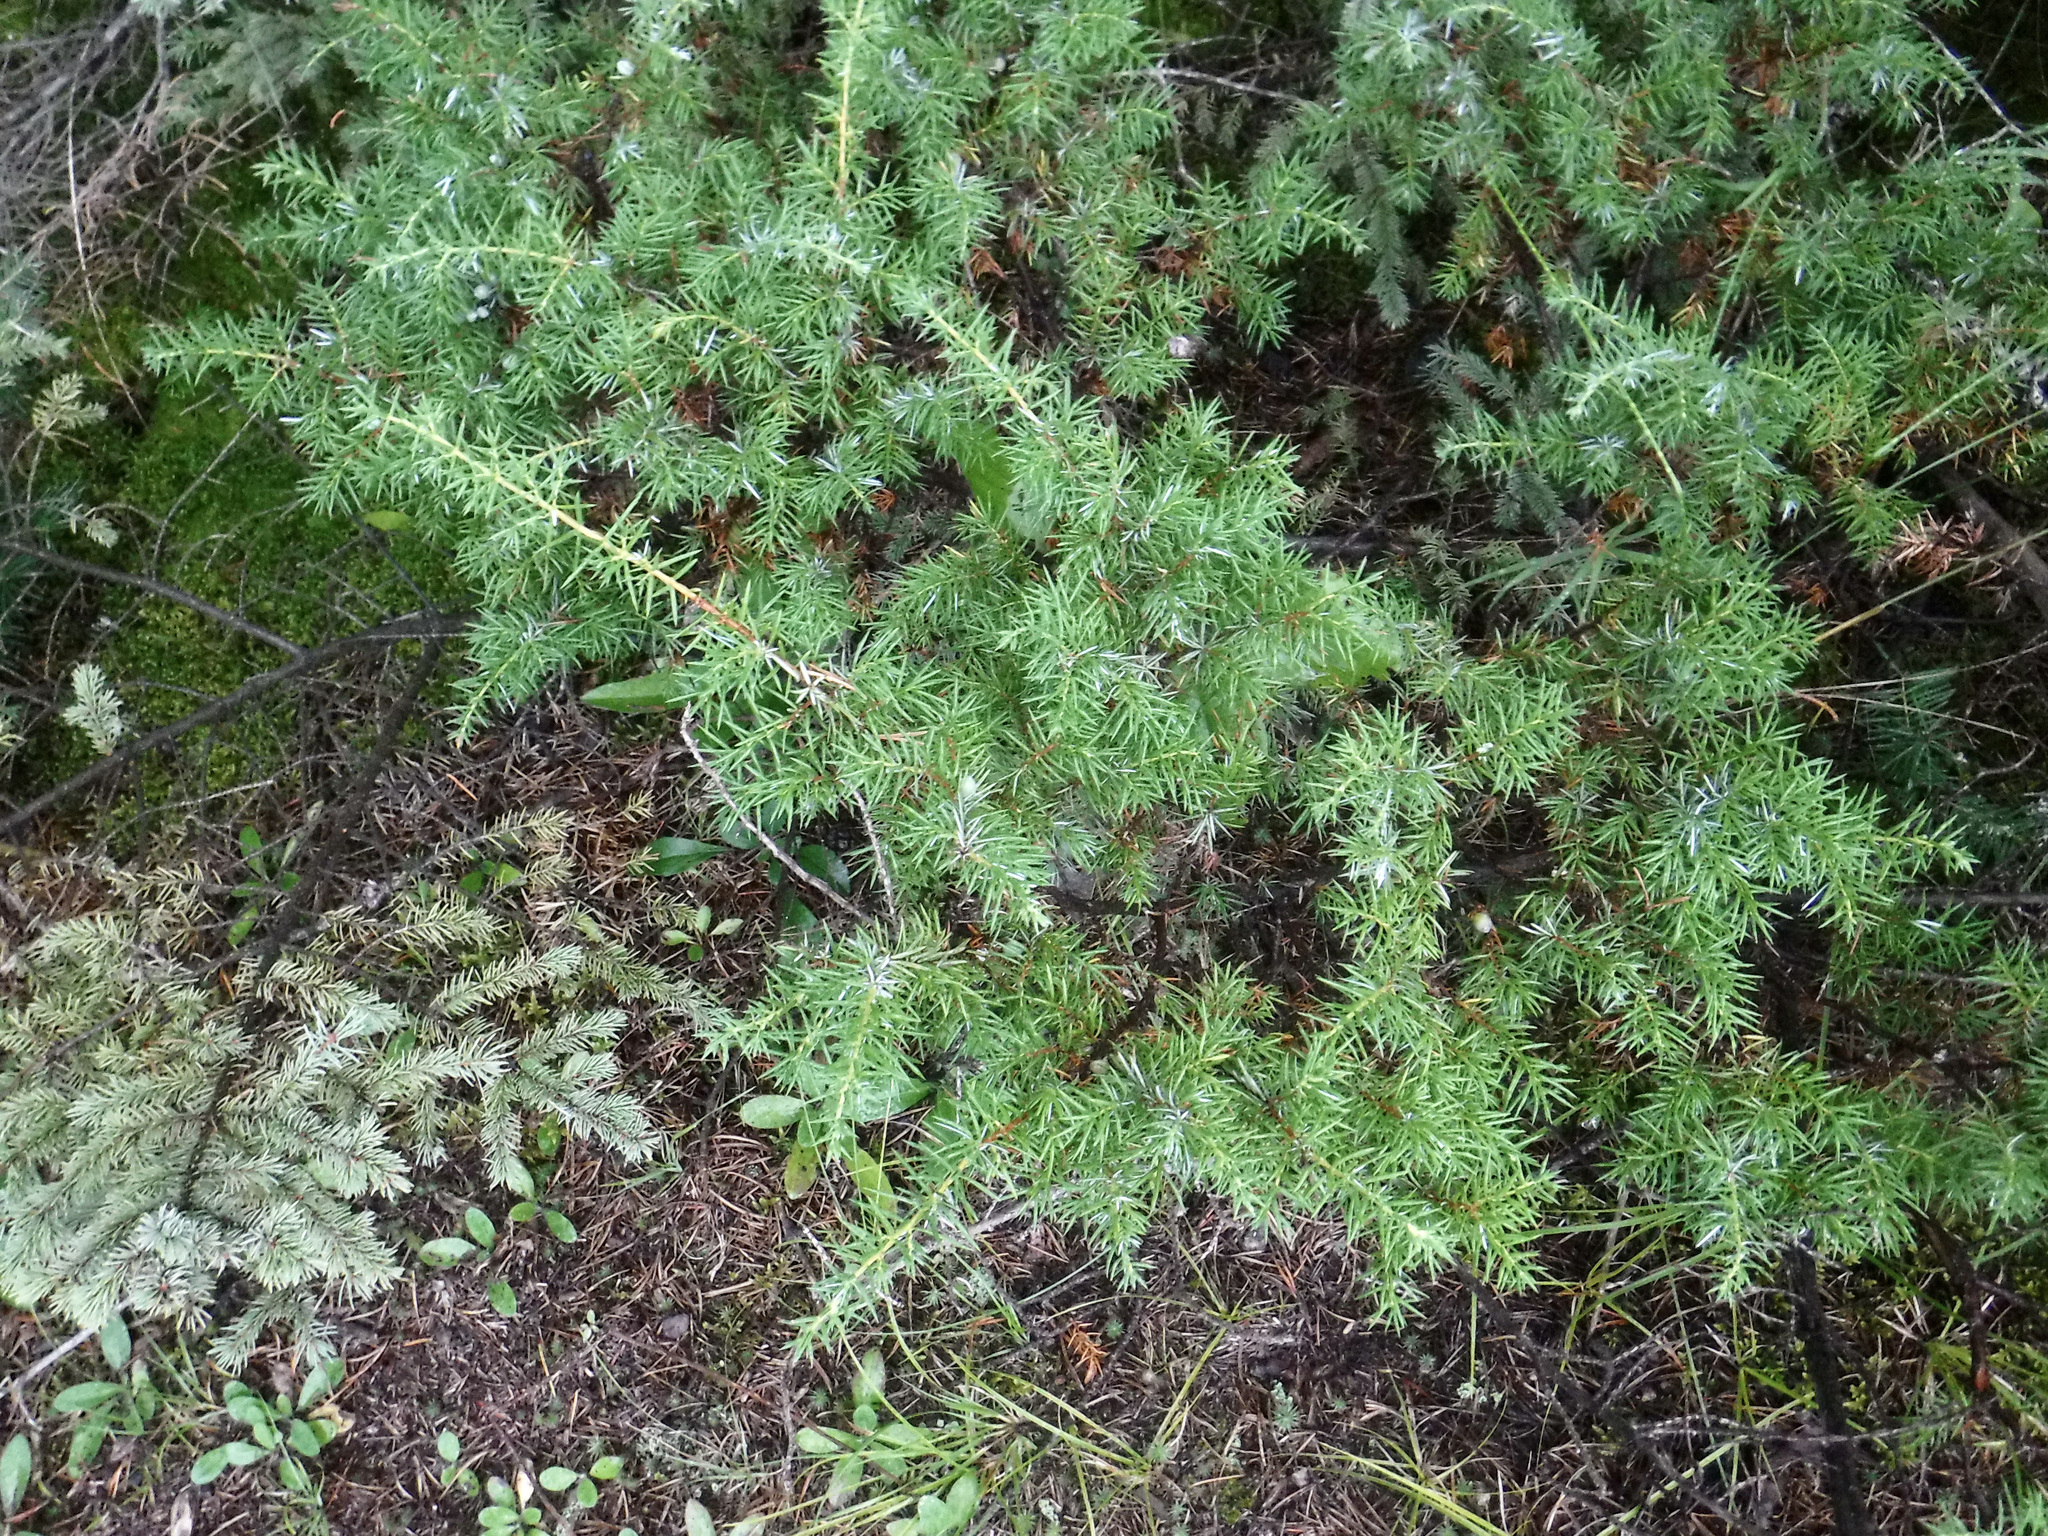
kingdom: Plantae
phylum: Tracheophyta
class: Pinopsida
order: Pinales
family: Cupressaceae
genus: Juniperus
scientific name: Juniperus communis
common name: Common juniper
